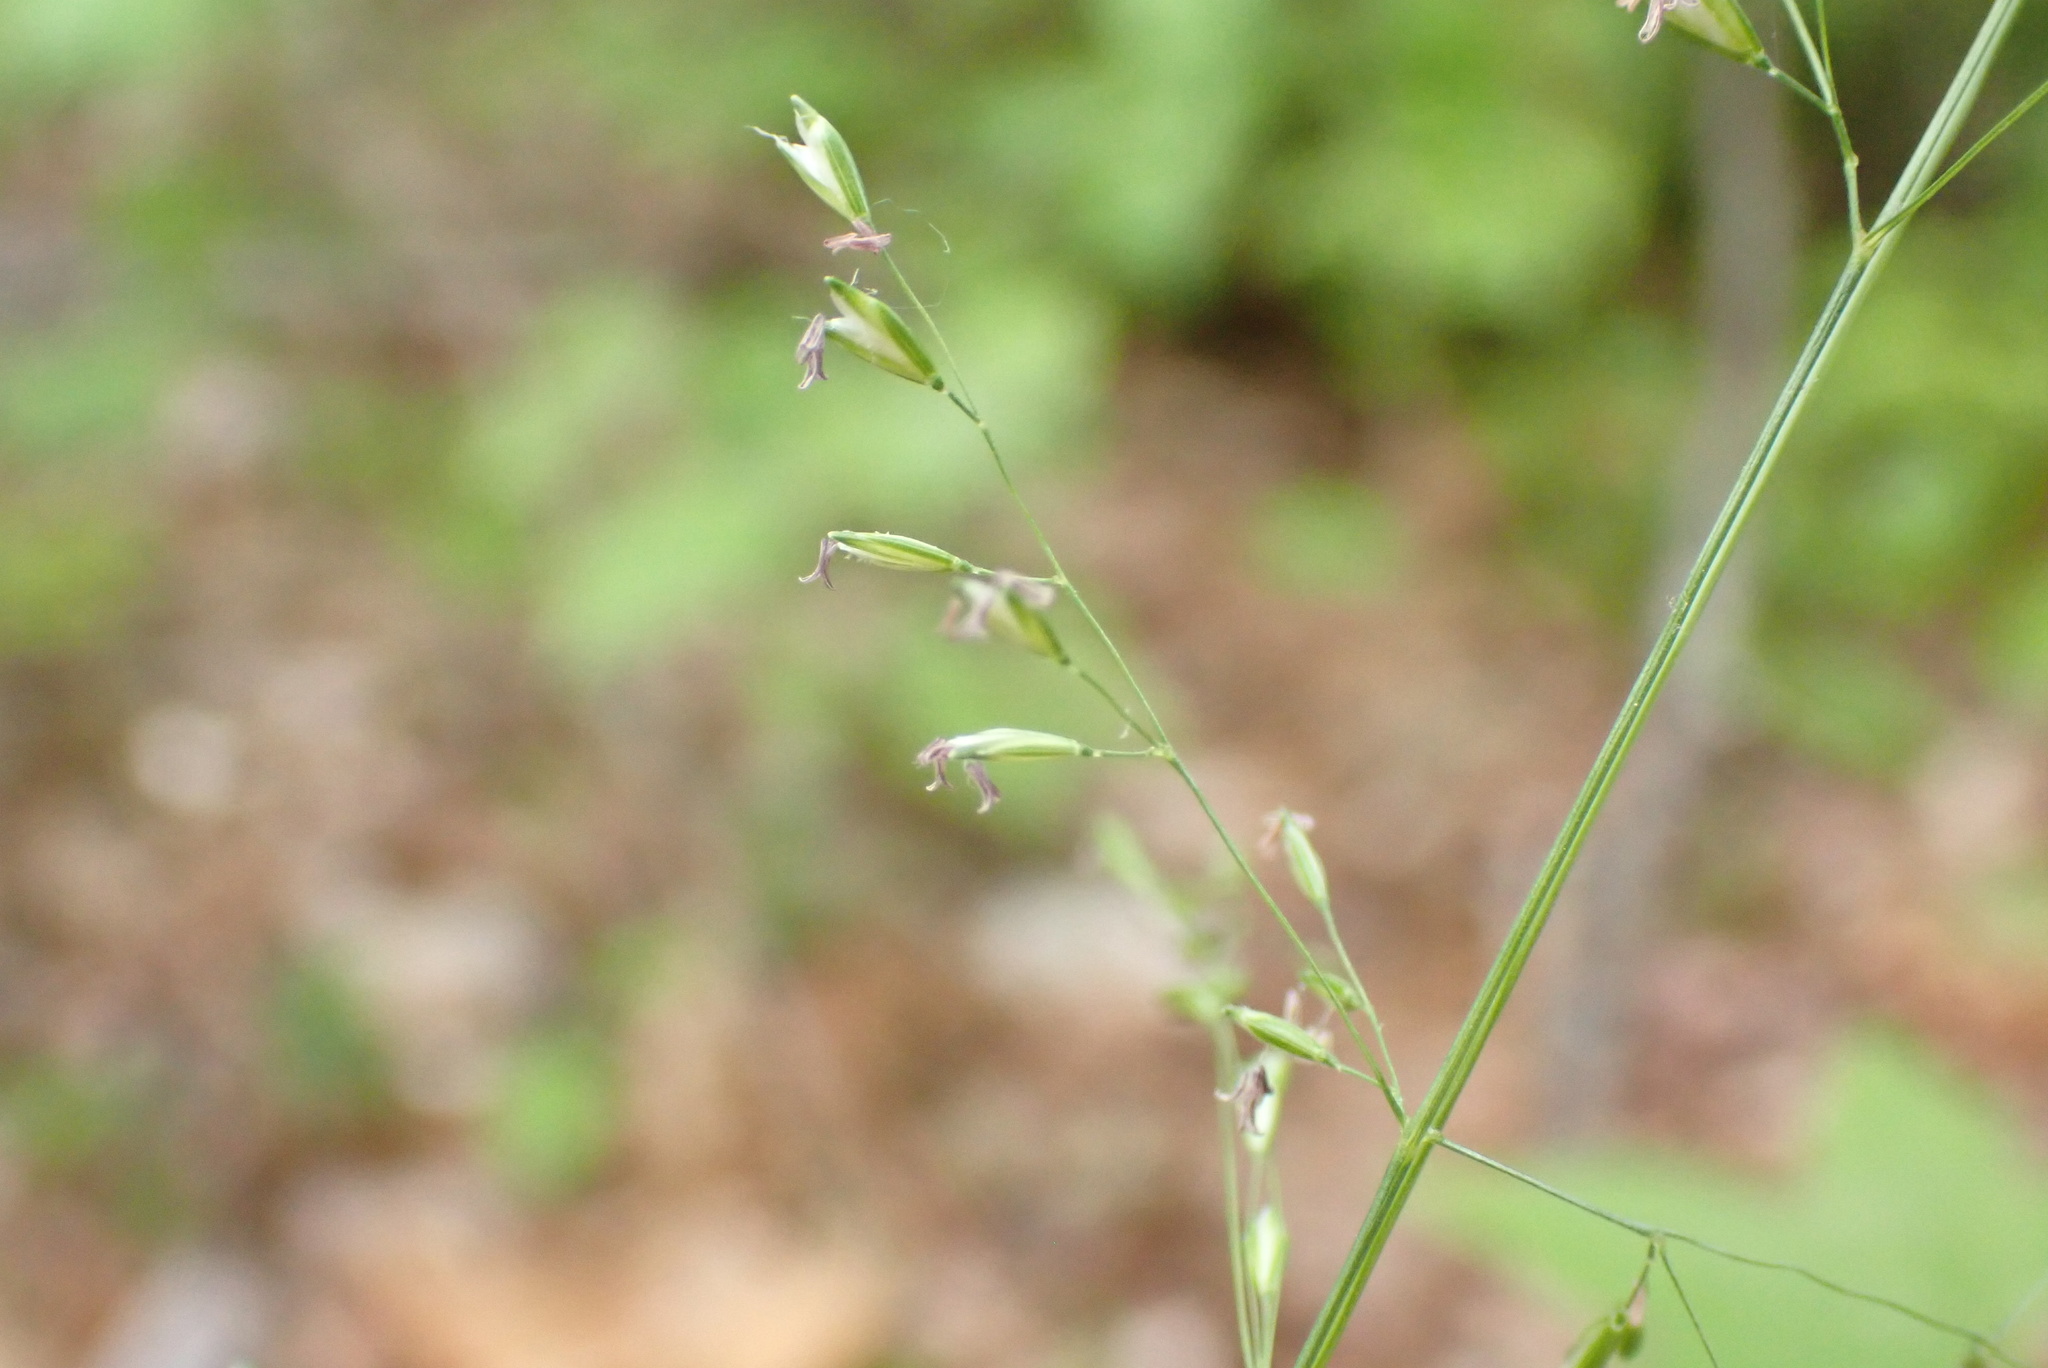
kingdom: Plantae
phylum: Tracheophyta
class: Liliopsida
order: Poales
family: Poaceae
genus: Sphenopholis
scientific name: Sphenopholis nitida
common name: Shiny wedgegrass
